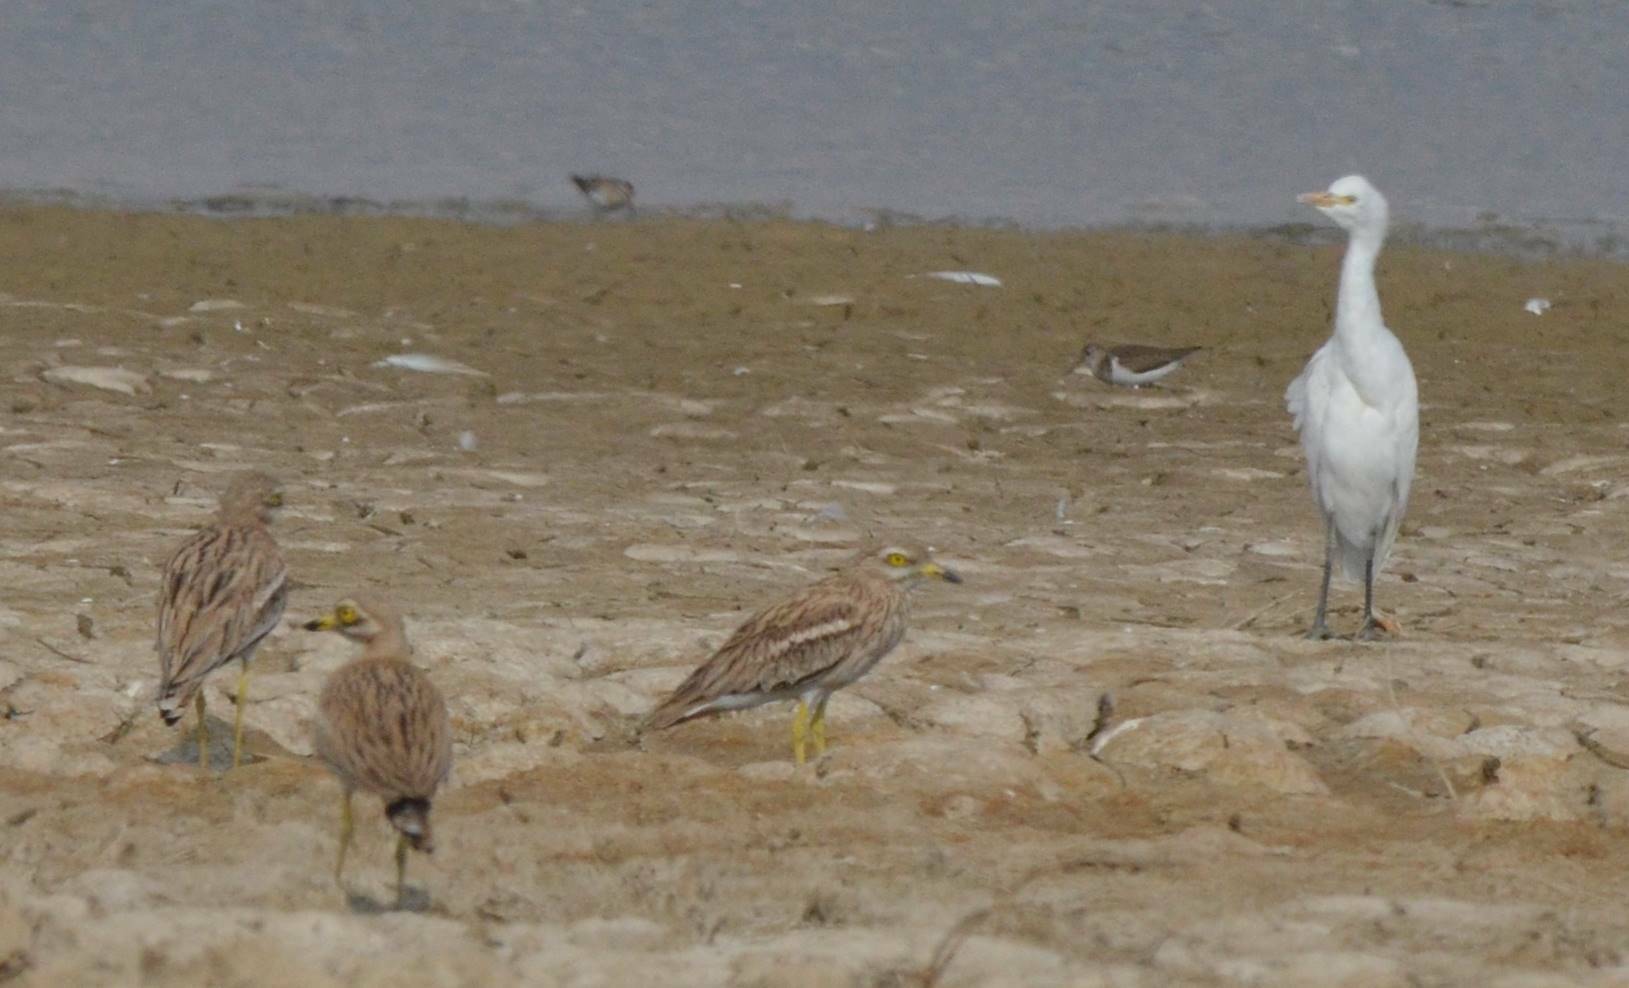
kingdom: Animalia
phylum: Chordata
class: Aves
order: Charadriiformes
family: Burhinidae
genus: Burhinus
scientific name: Burhinus oedicnemus
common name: Eurasian stone-curlew
